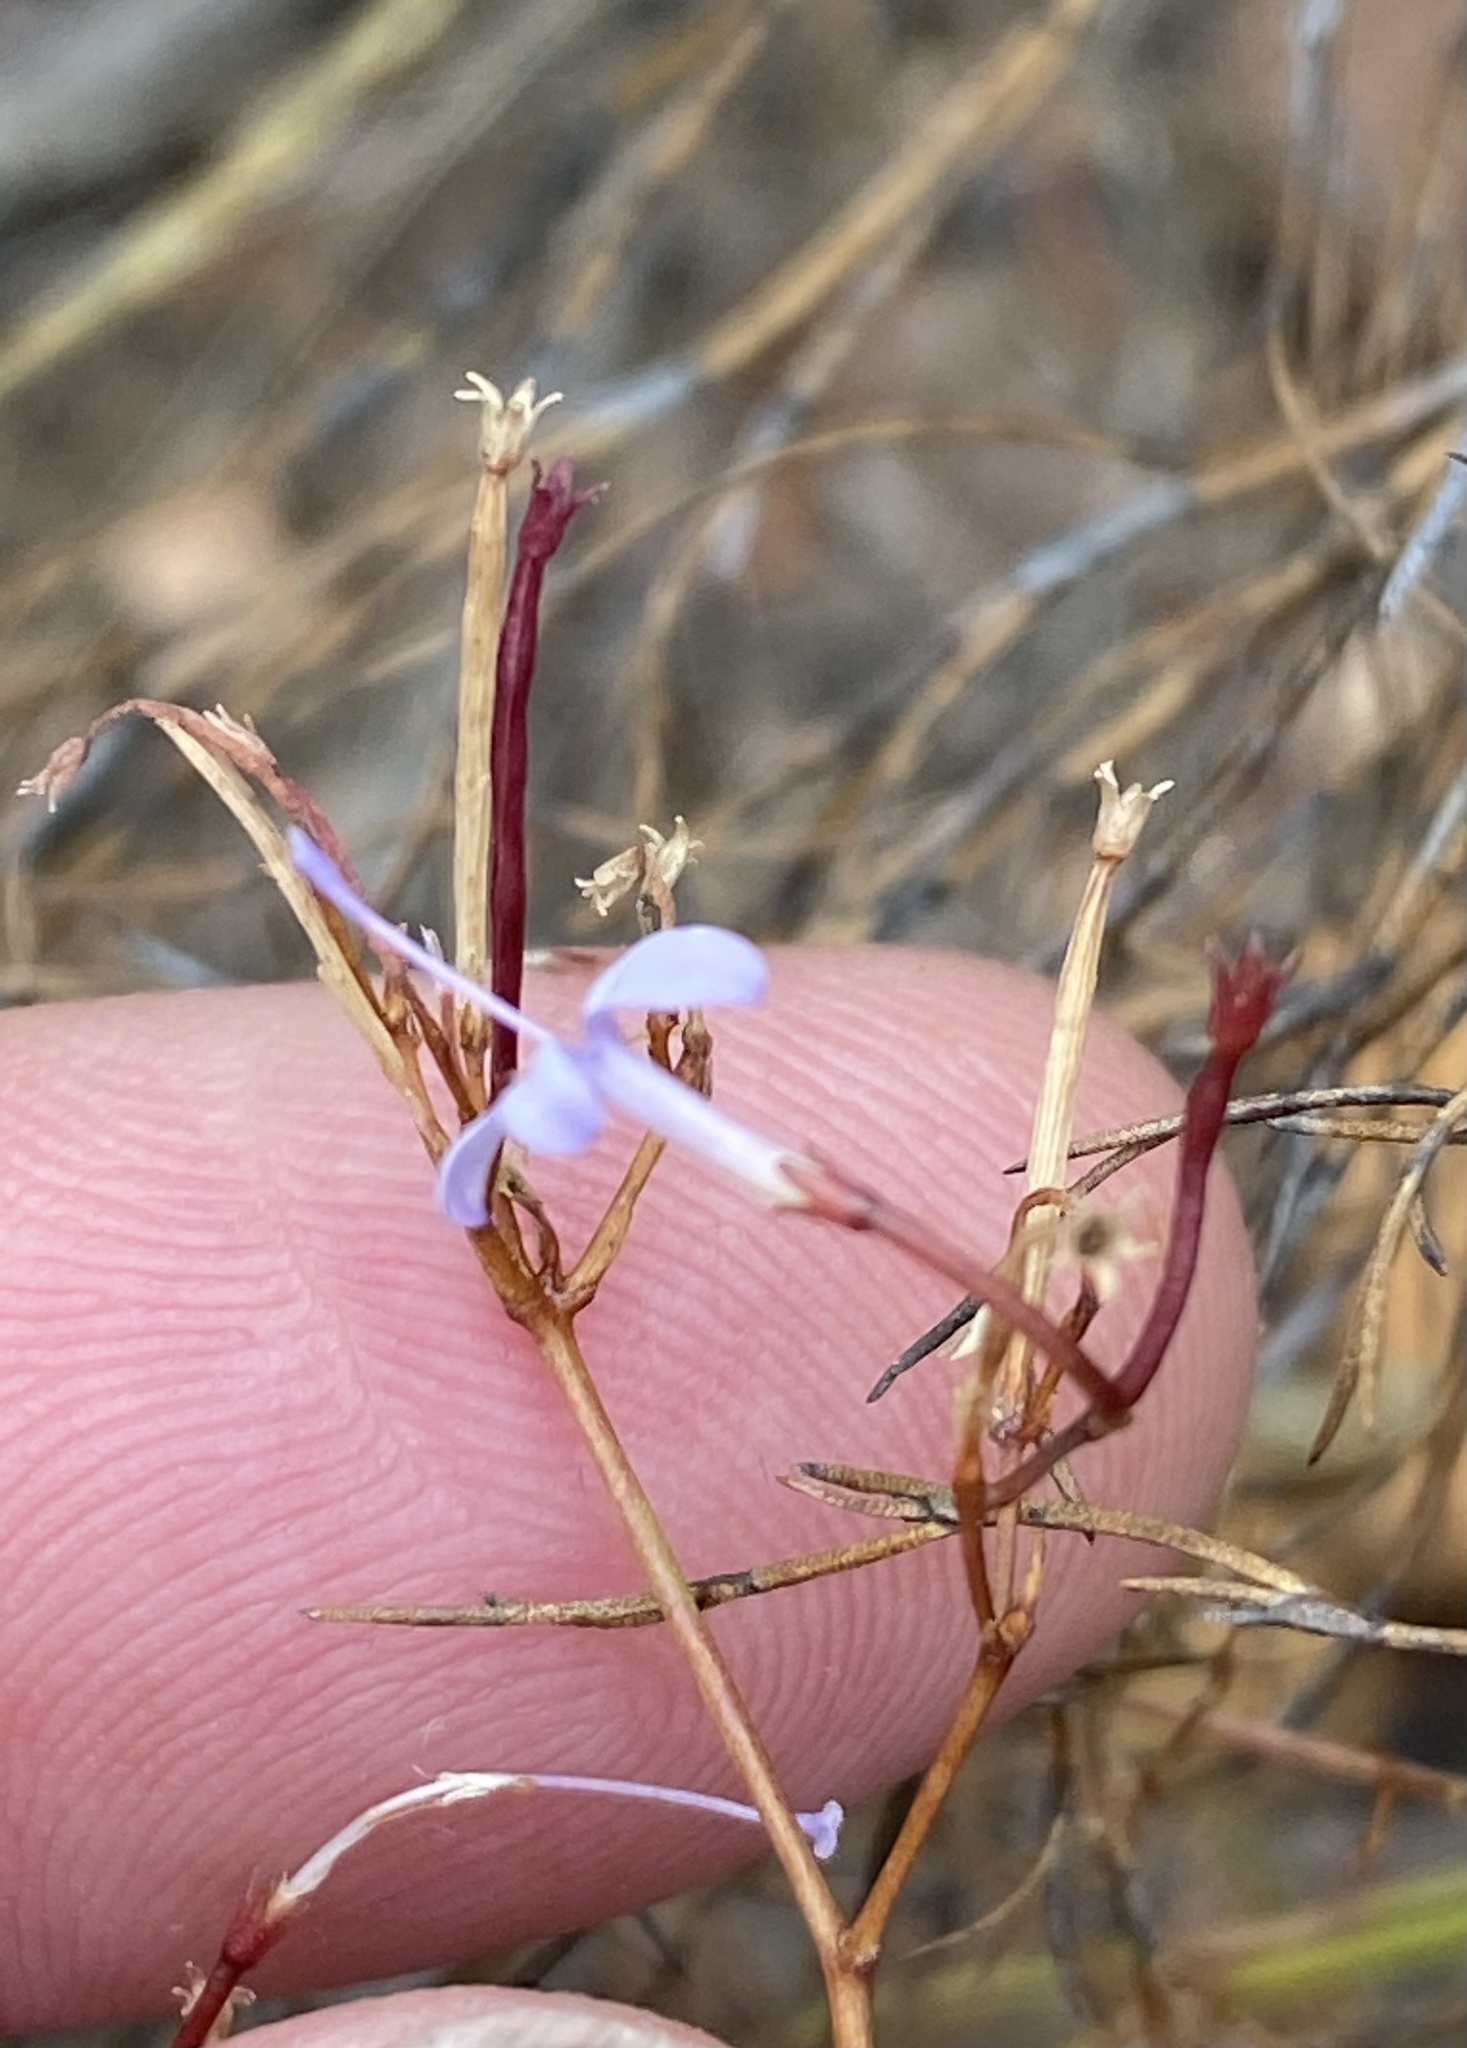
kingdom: Plantae
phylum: Tracheophyta
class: Magnoliopsida
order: Asterales
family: Campanulaceae
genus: Prismatocarpus
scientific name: Prismatocarpus diffusus
